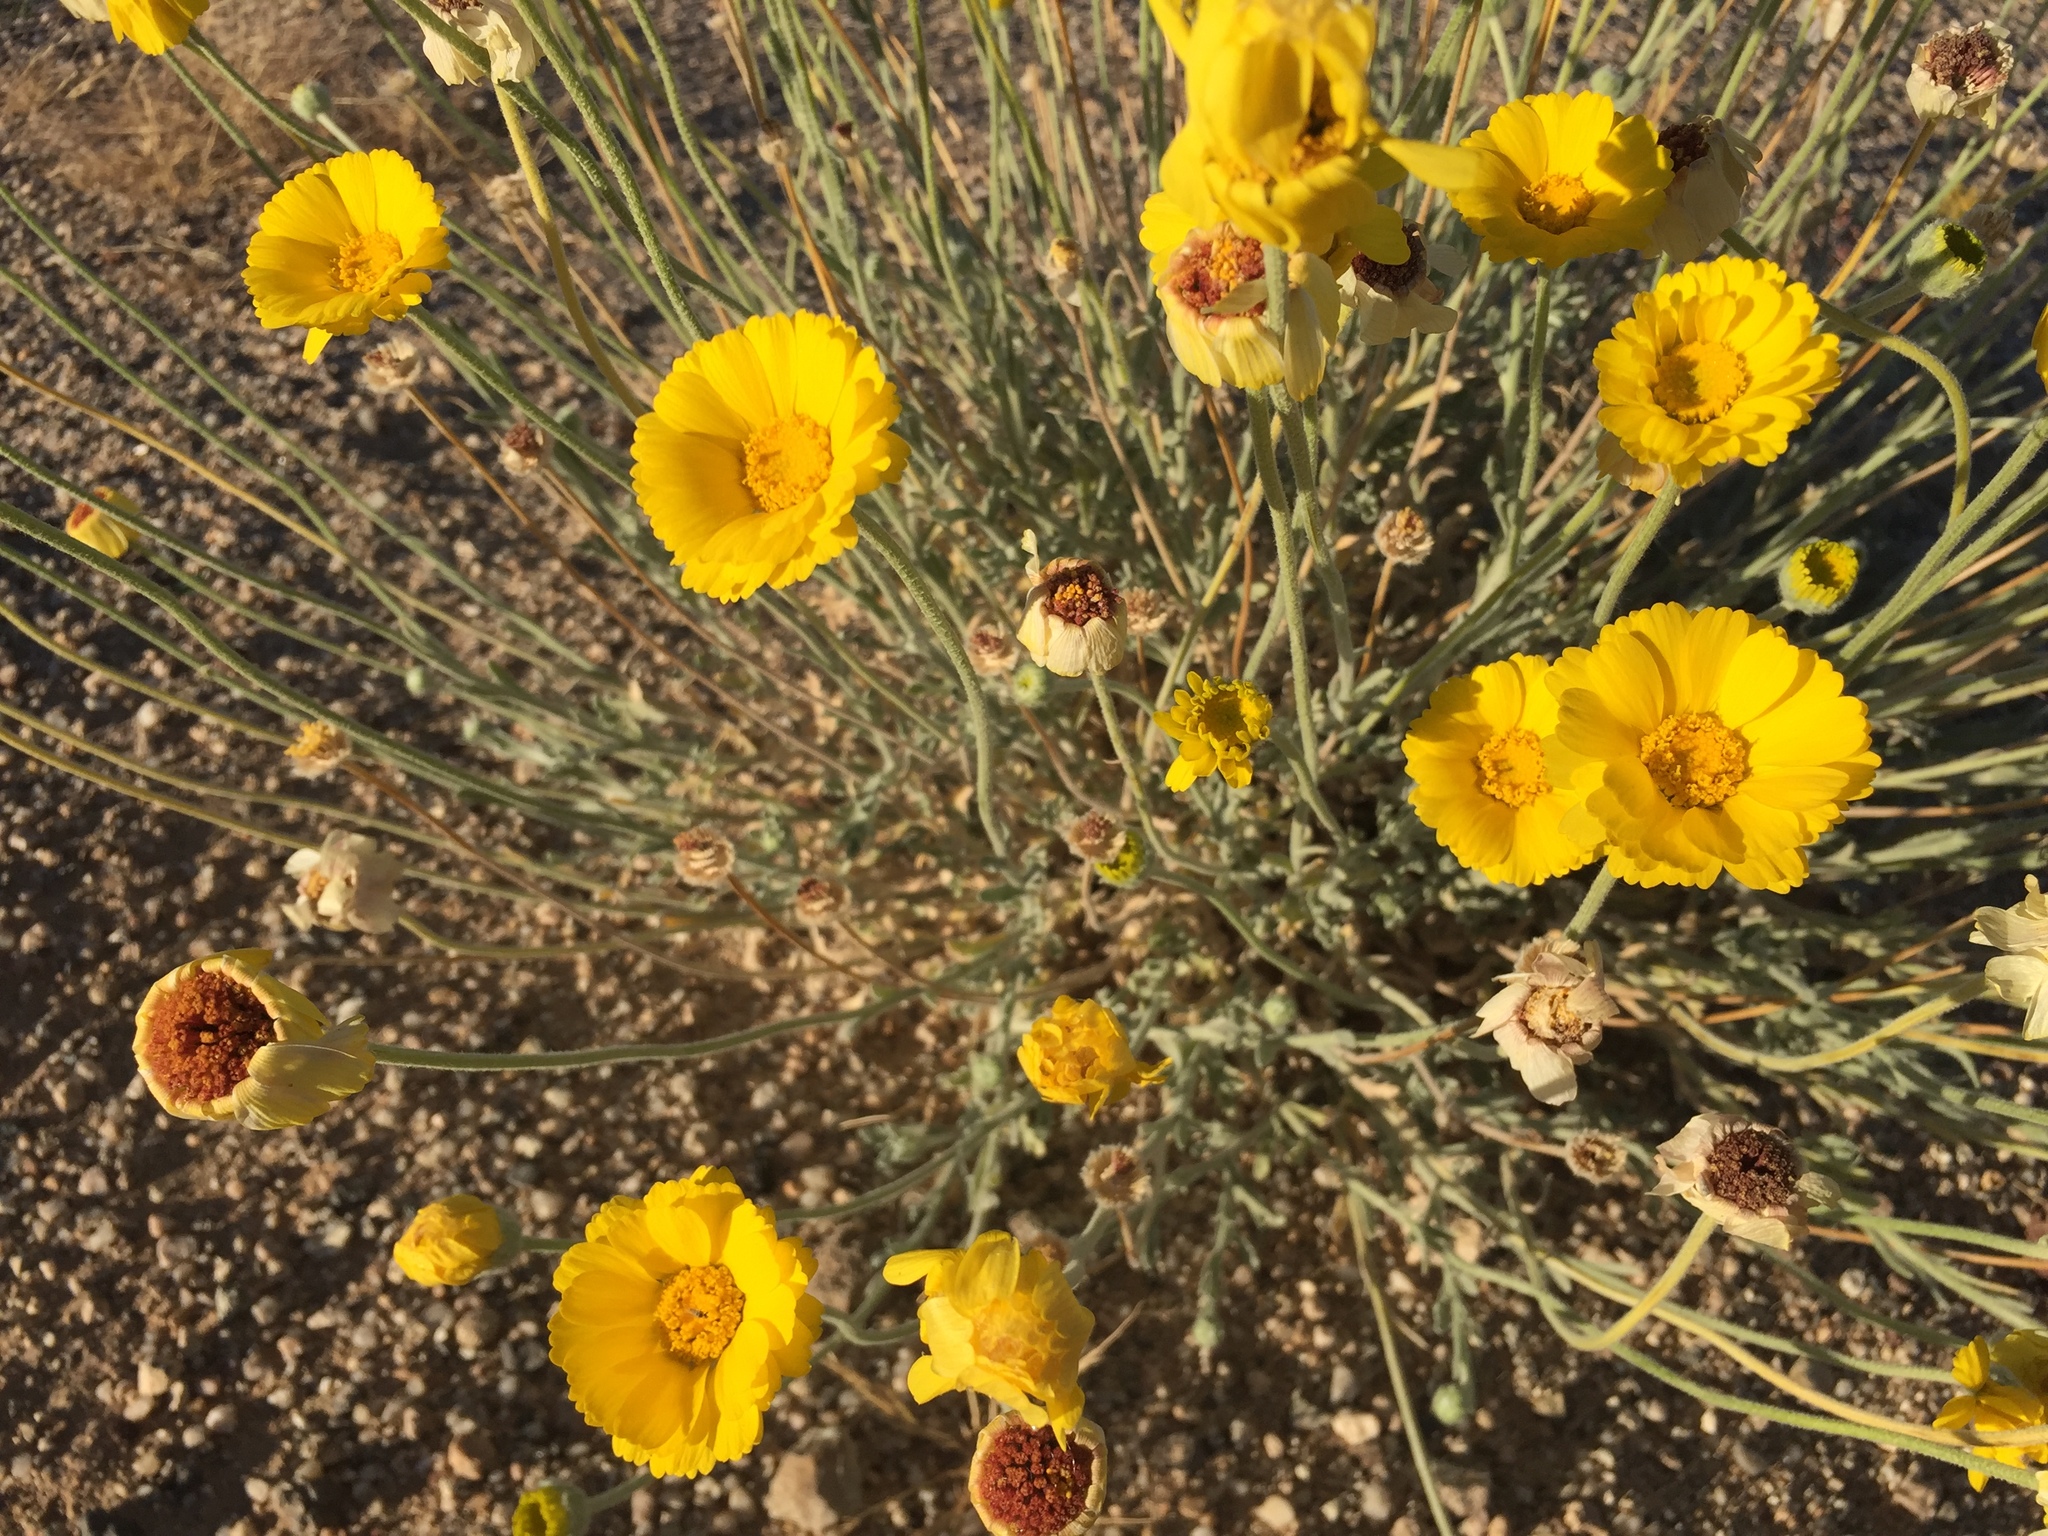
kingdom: Plantae
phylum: Tracheophyta
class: Magnoliopsida
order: Asterales
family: Asteraceae
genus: Baileya
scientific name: Baileya multiradiata
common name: Desert-marigold
